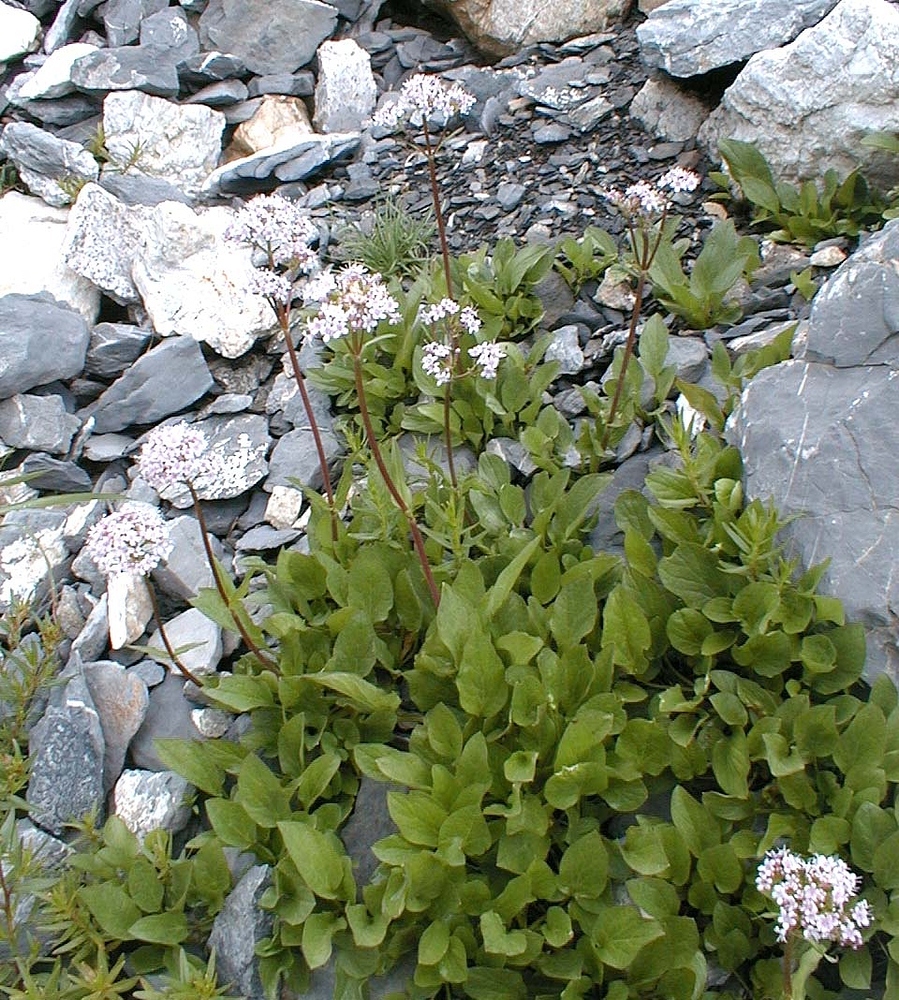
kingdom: Plantae
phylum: Tracheophyta
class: Magnoliopsida
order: Dipsacales
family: Caprifoliaceae
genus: Valeriana
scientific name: Valeriana montana
